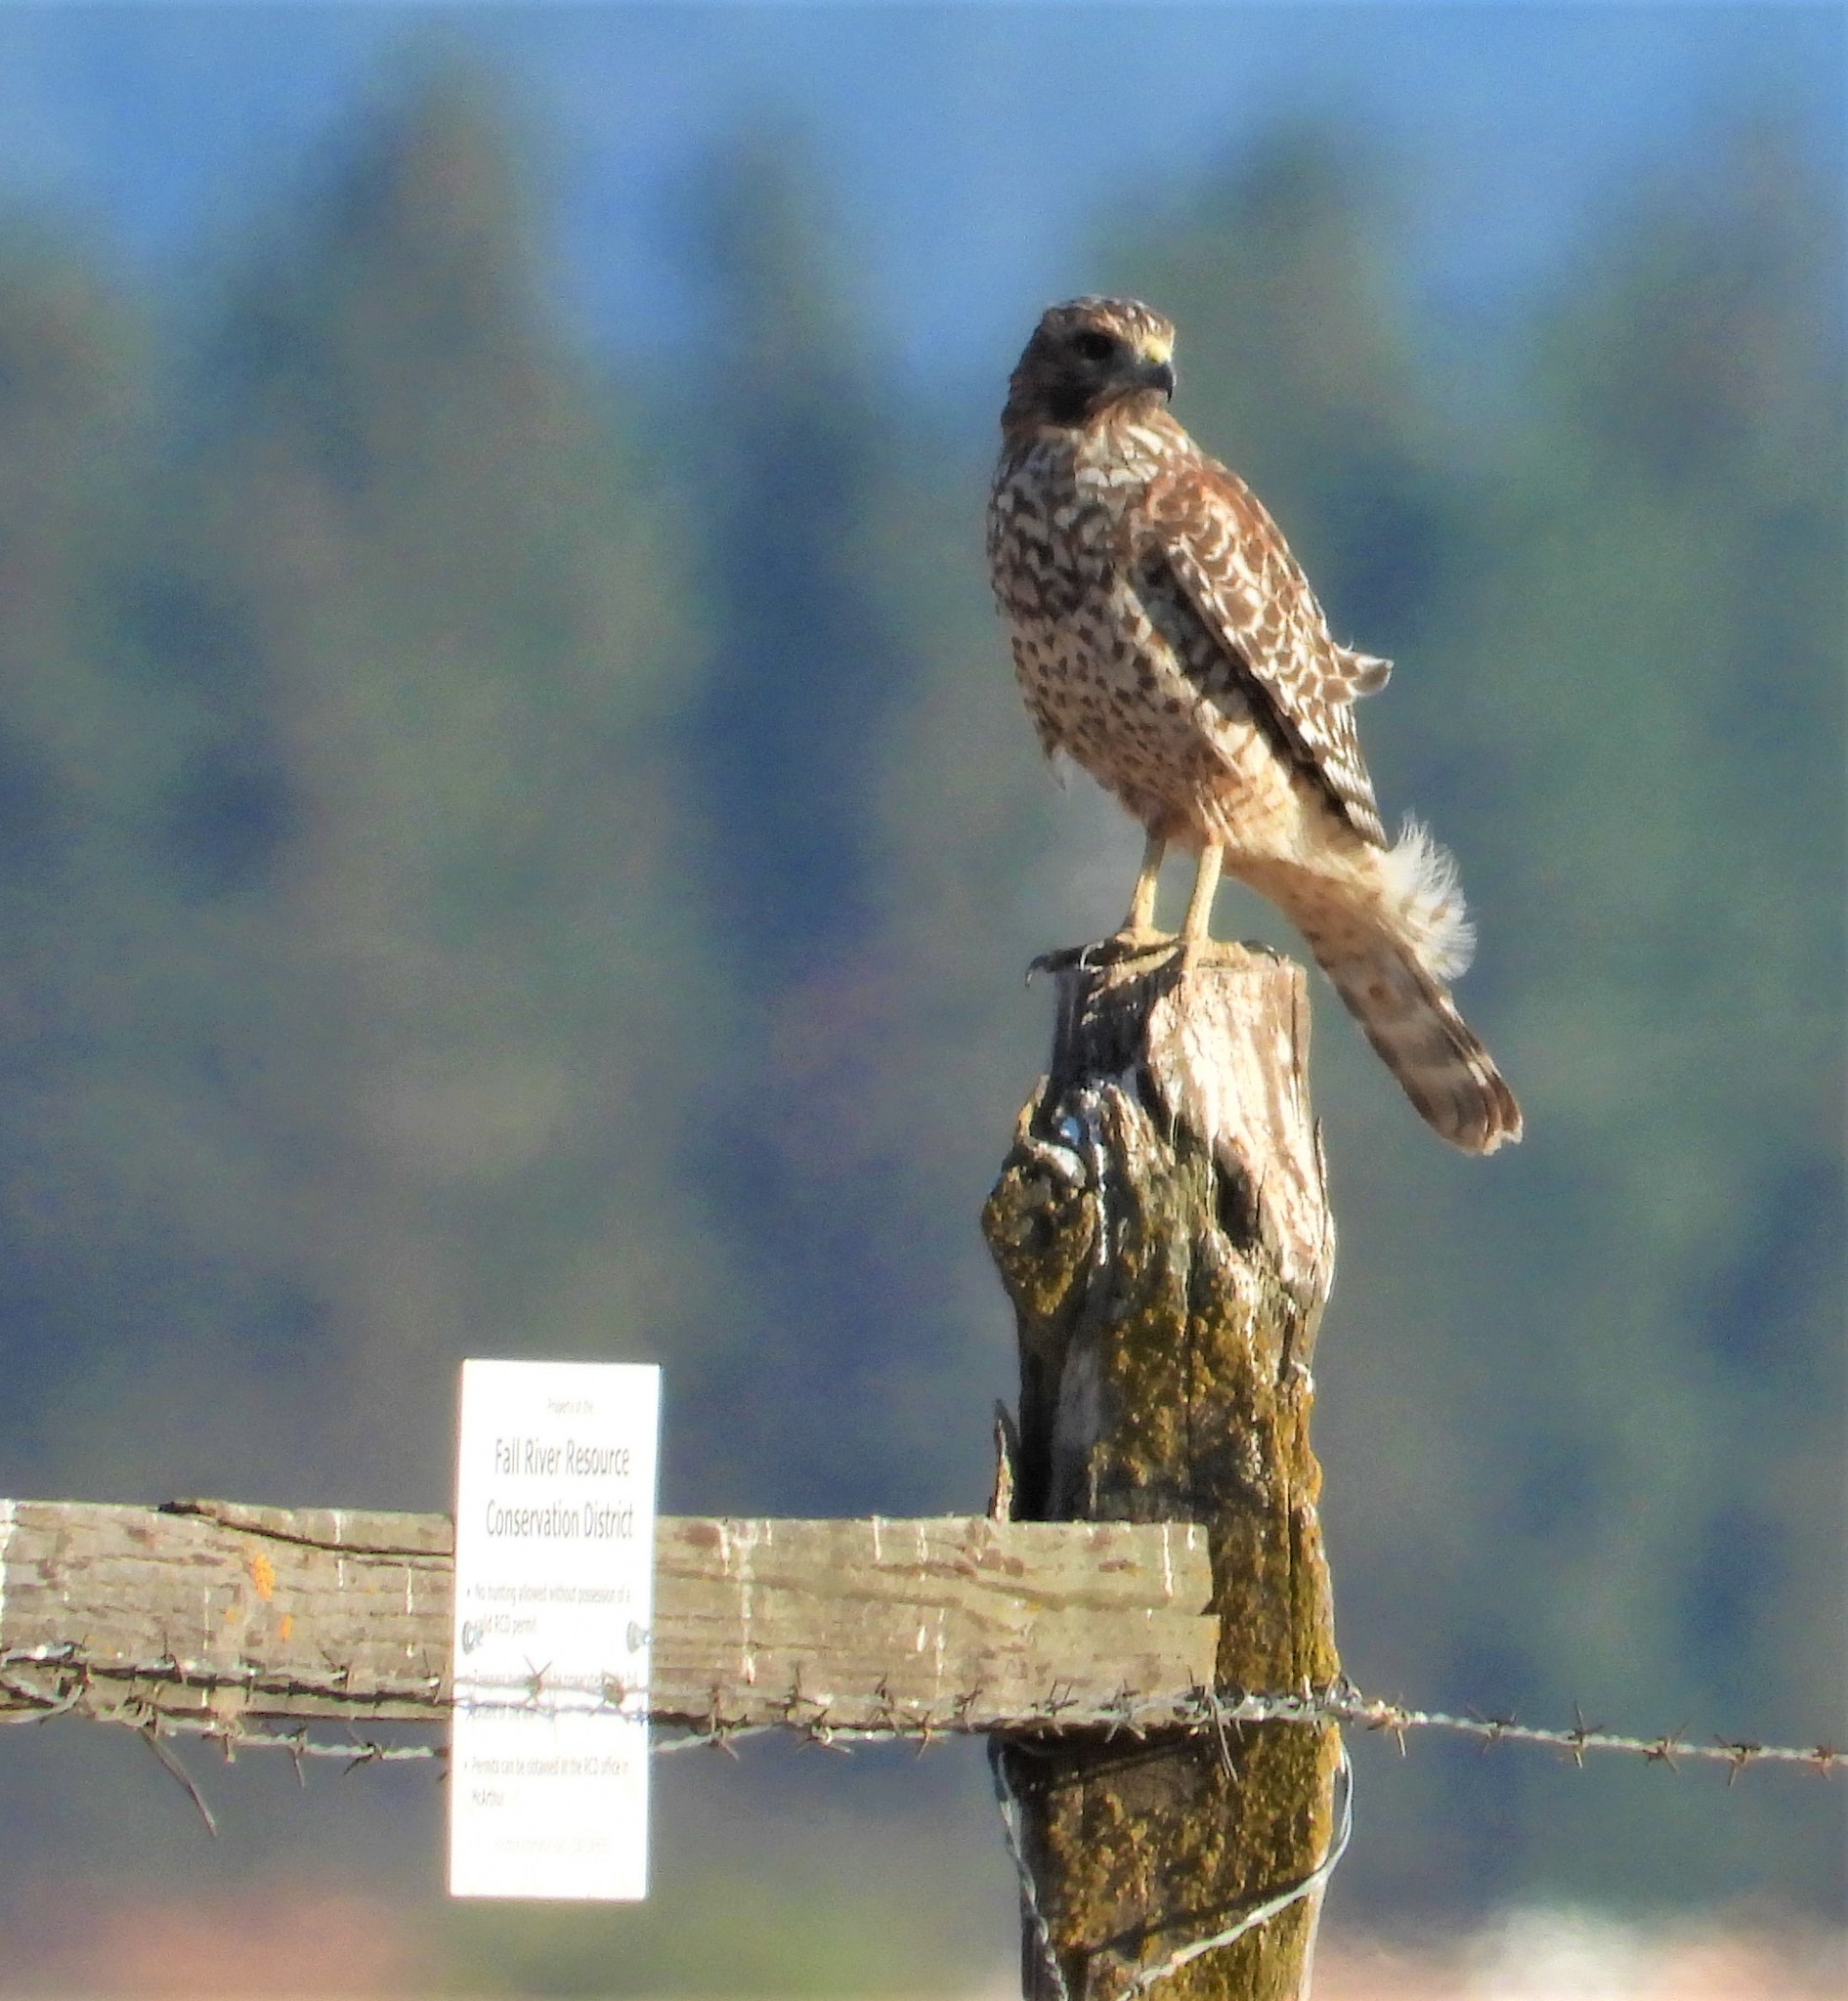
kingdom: Animalia
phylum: Chordata
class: Aves
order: Accipitriformes
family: Accipitridae
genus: Buteo
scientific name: Buteo lineatus
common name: Red-shouldered hawk
